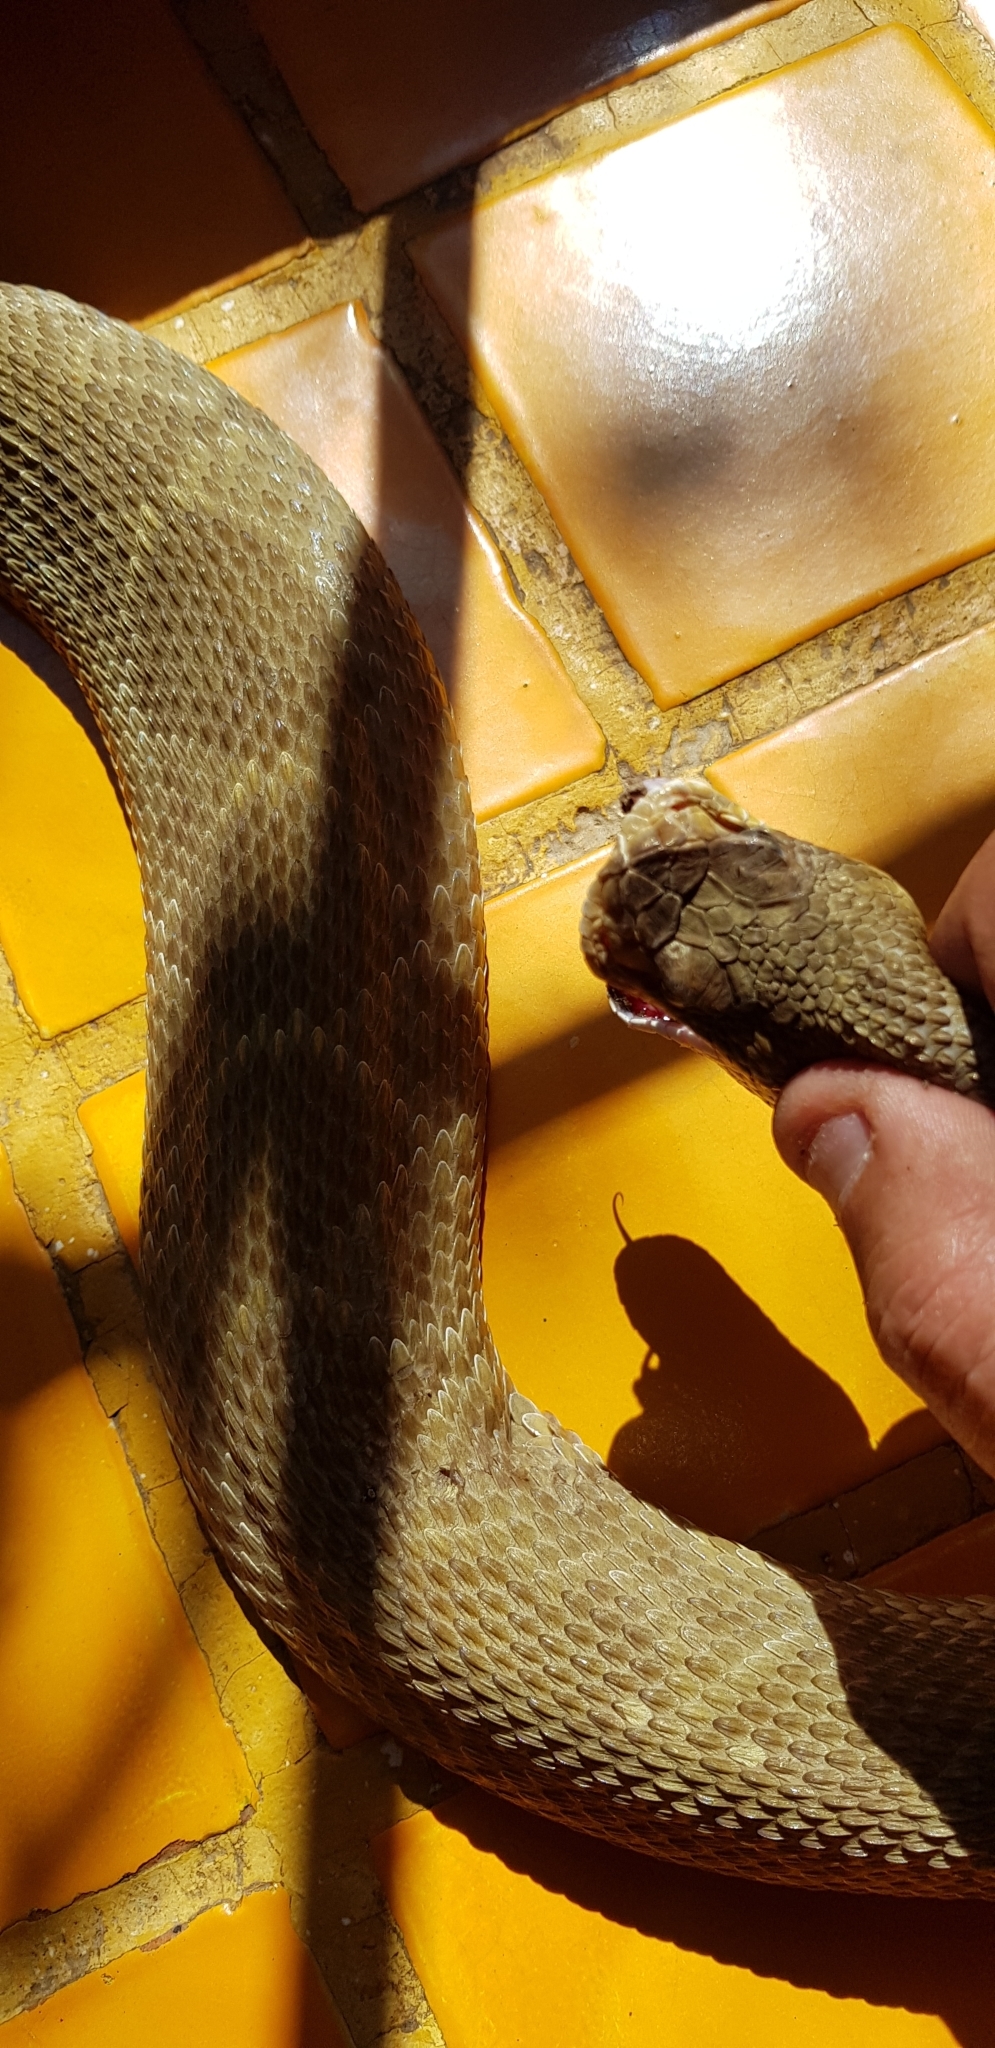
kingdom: Animalia
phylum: Chordata
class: Squamata
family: Viperidae
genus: Crotalus
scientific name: Crotalus molossus
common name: Black tailed rattlesnake
